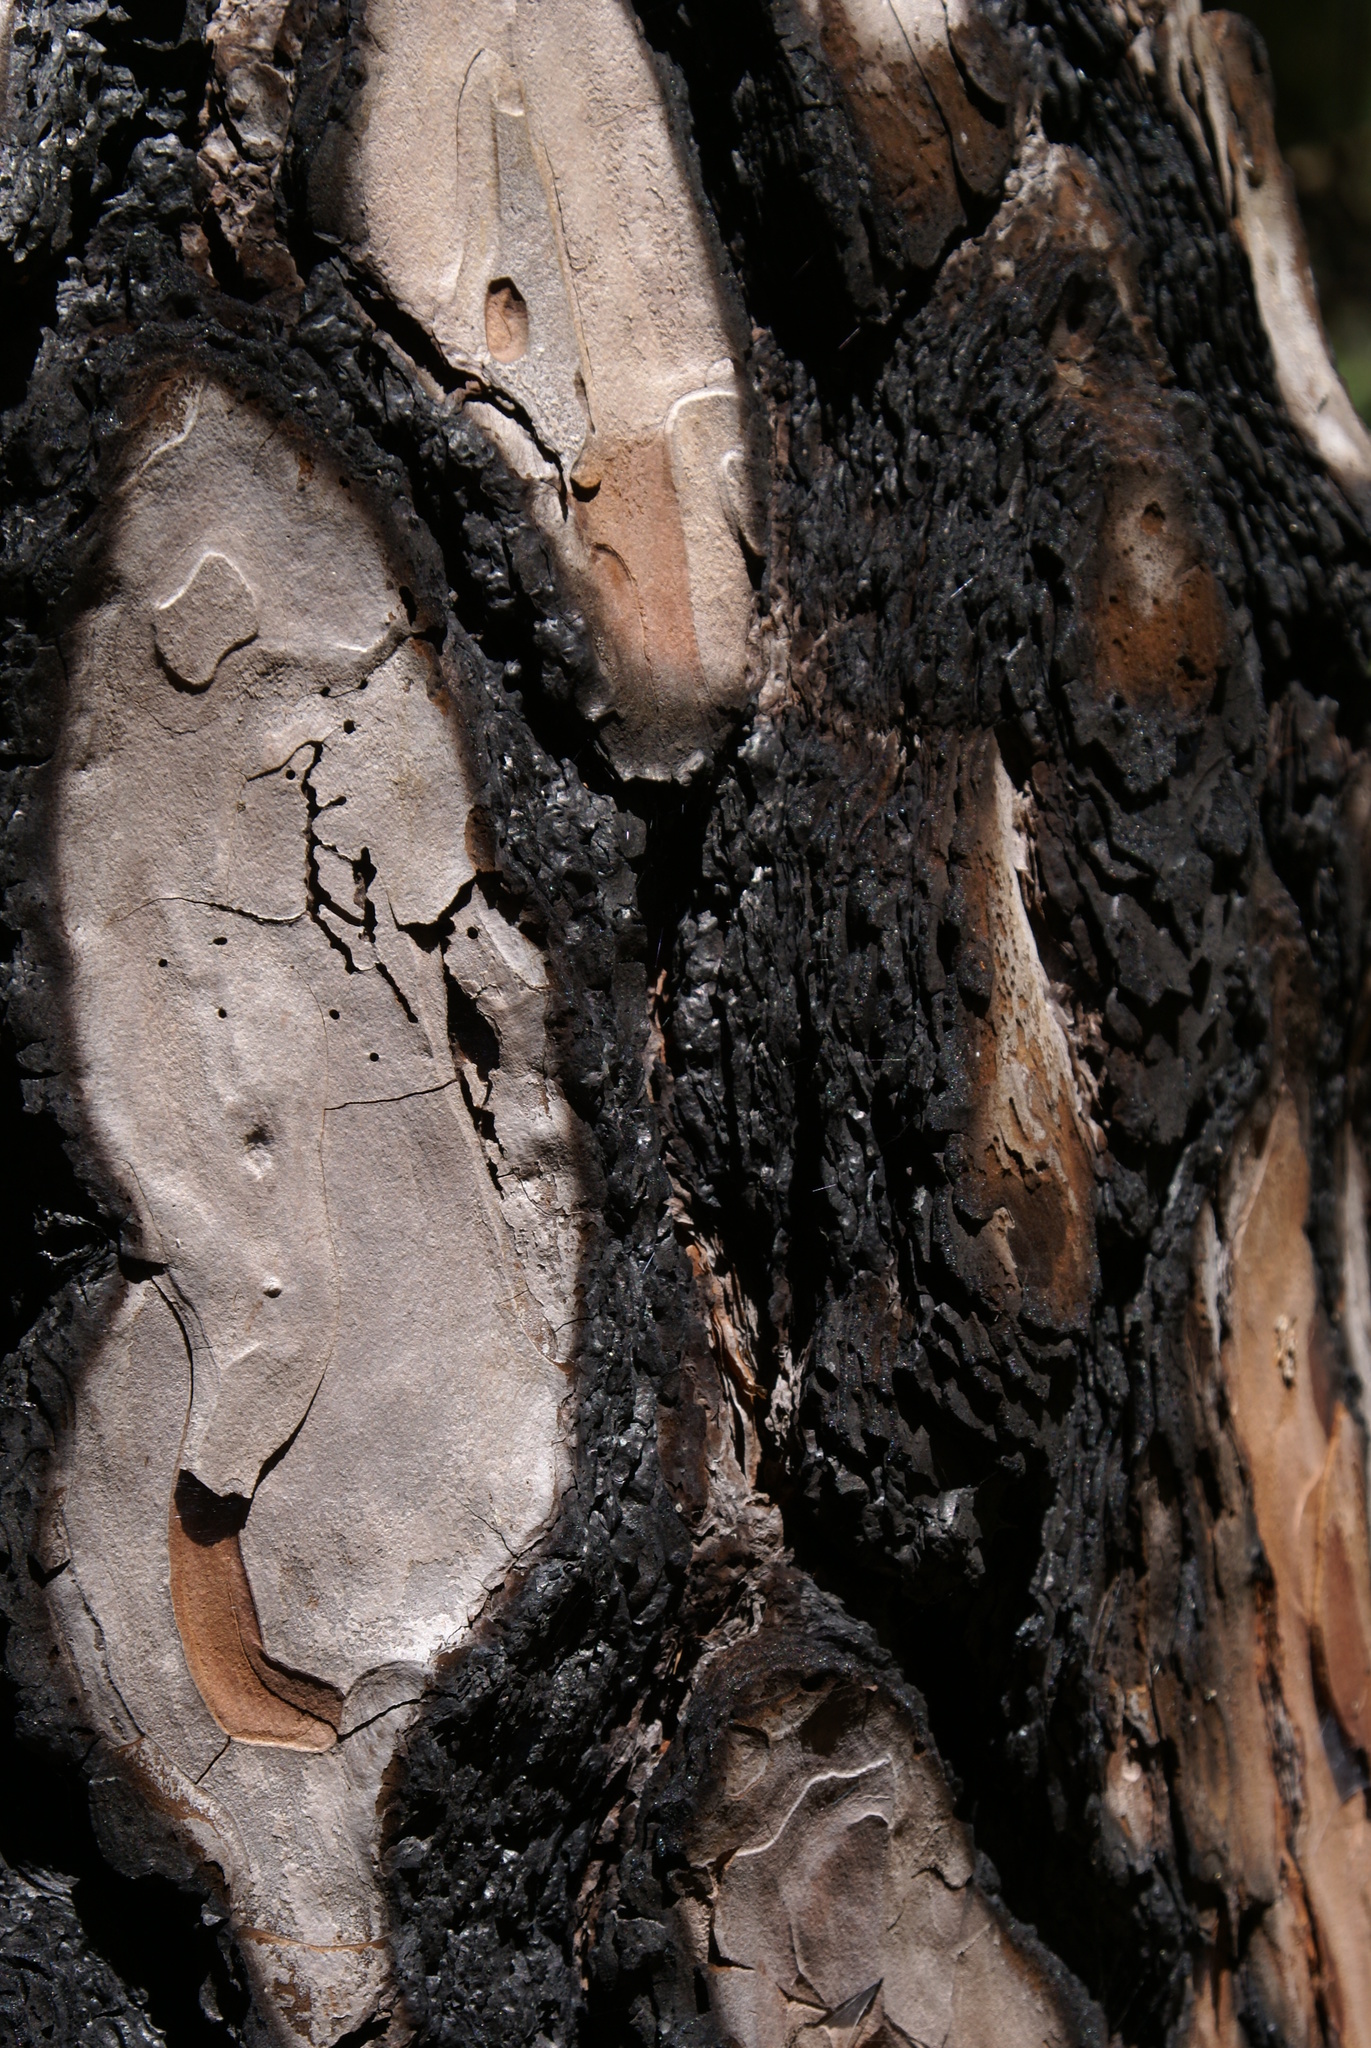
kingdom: Plantae
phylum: Tracheophyta
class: Pinopsida
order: Pinales
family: Pinaceae
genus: Pinus
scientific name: Pinus canariensis
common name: Canary islands pine
